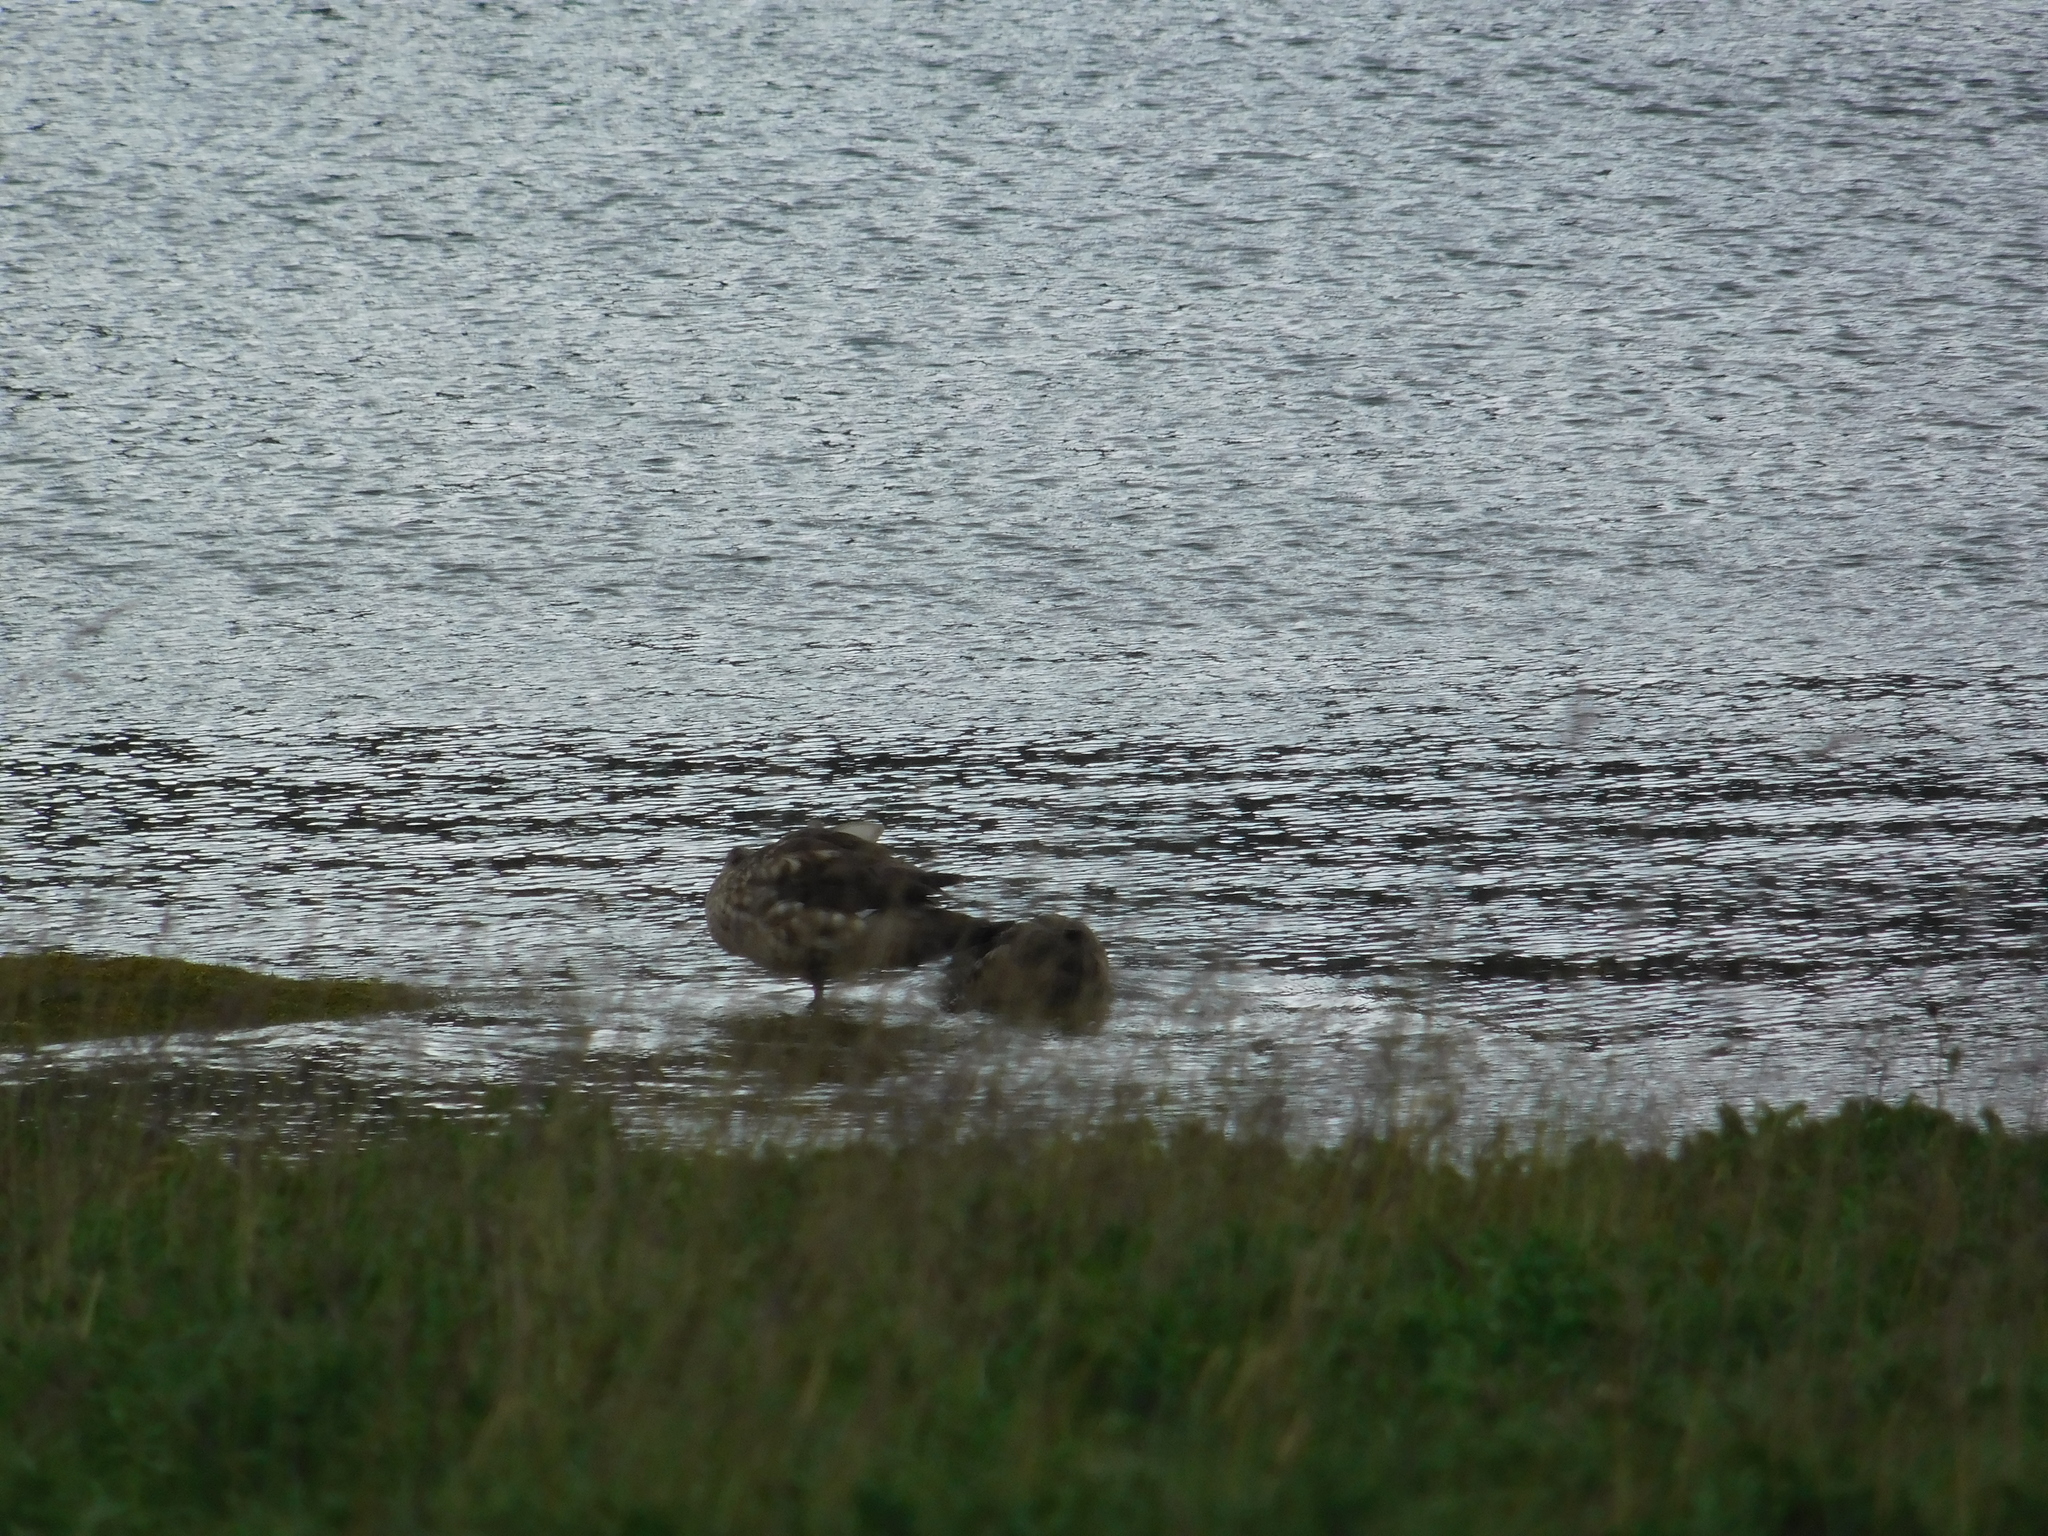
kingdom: Animalia
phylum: Chordata
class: Aves
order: Anseriformes
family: Anatidae
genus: Lophonetta
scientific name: Lophonetta specularioides
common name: Crested duck
